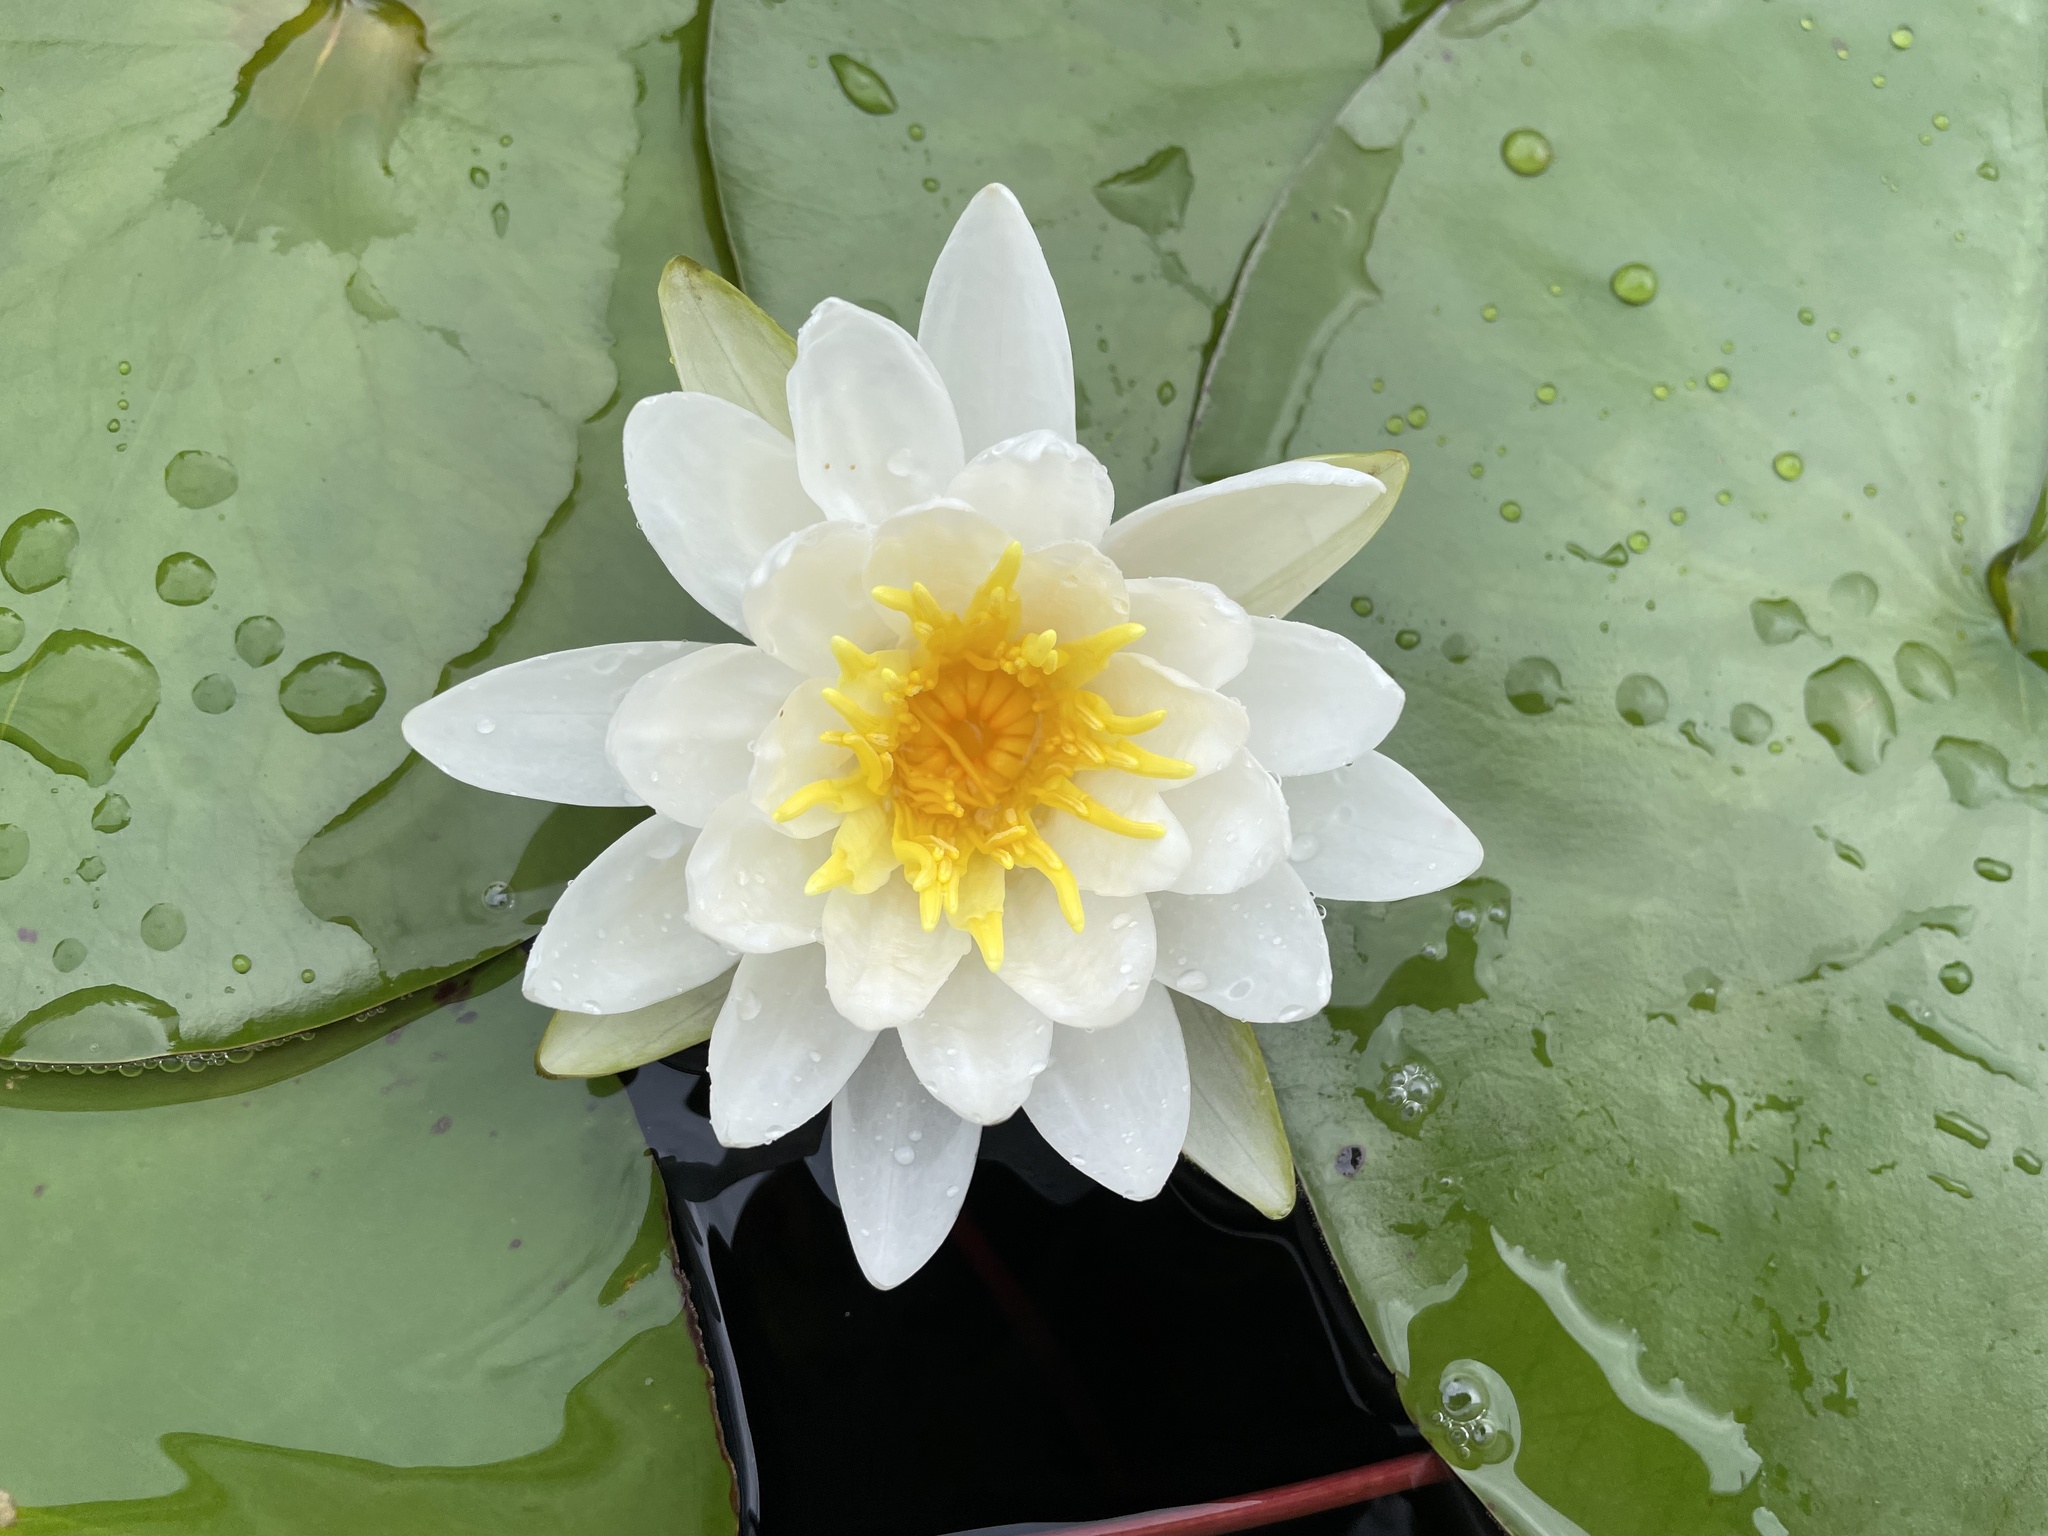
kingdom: Plantae
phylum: Tracheophyta
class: Magnoliopsida
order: Nymphaeales
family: Nymphaeaceae
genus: Nymphaea
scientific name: Nymphaea odorata
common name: Fragrant water-lily
